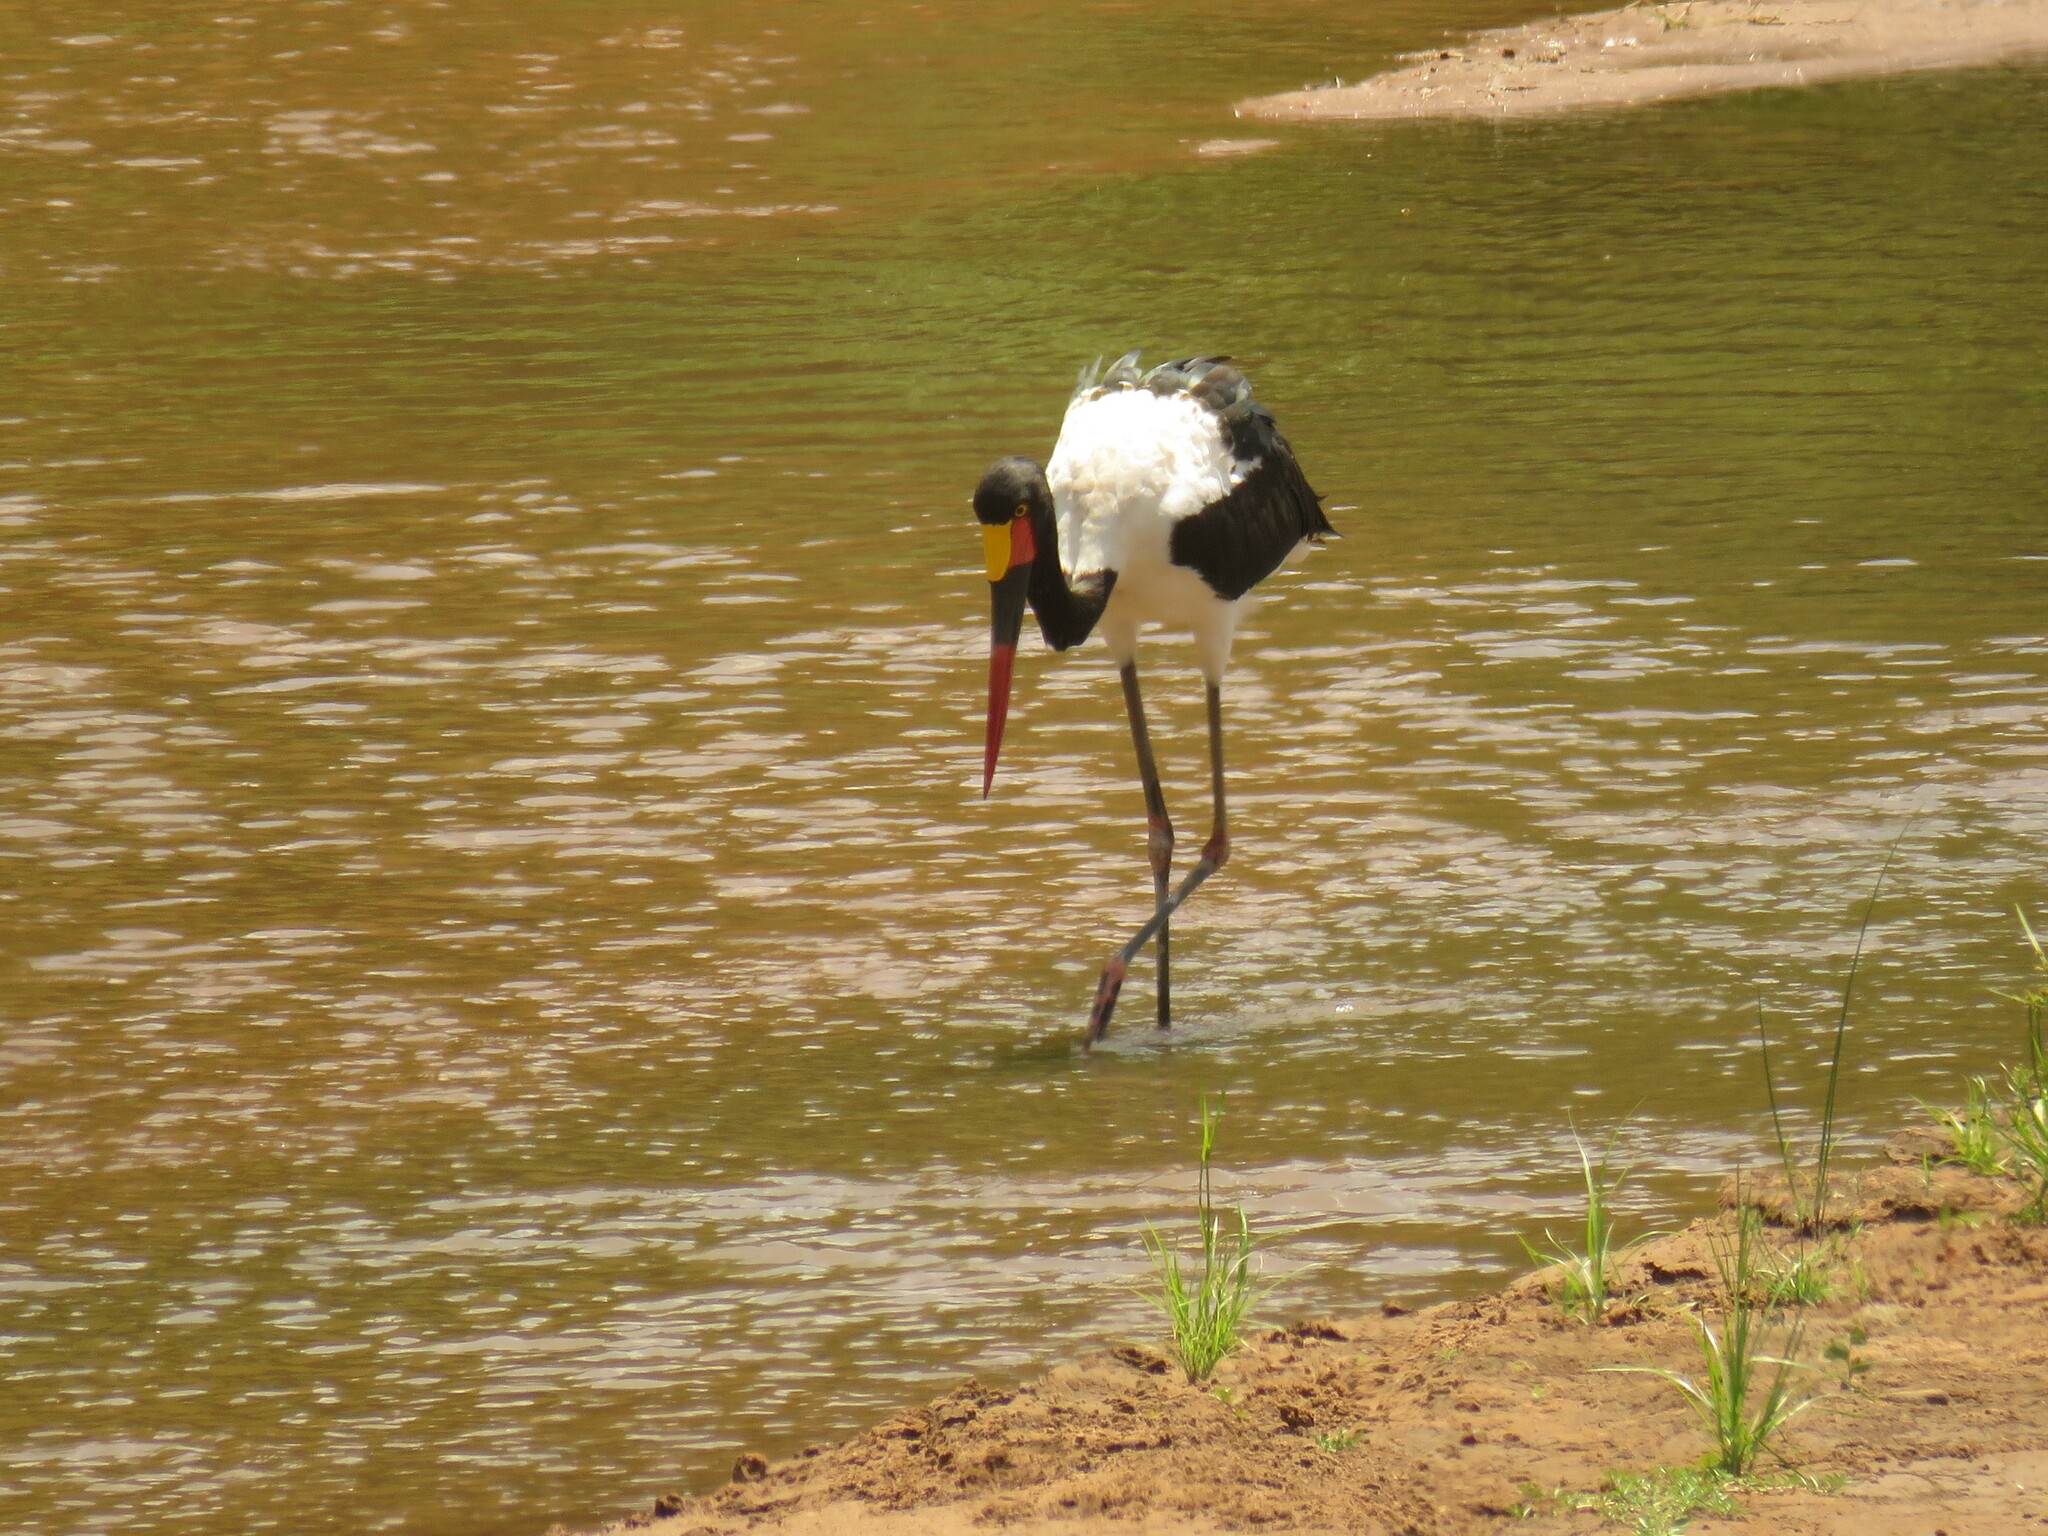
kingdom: Animalia
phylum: Chordata
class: Aves
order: Ciconiiformes
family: Ciconiidae
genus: Ephippiorhynchus
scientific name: Ephippiorhynchus senegalensis
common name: Saddle-billed stork
